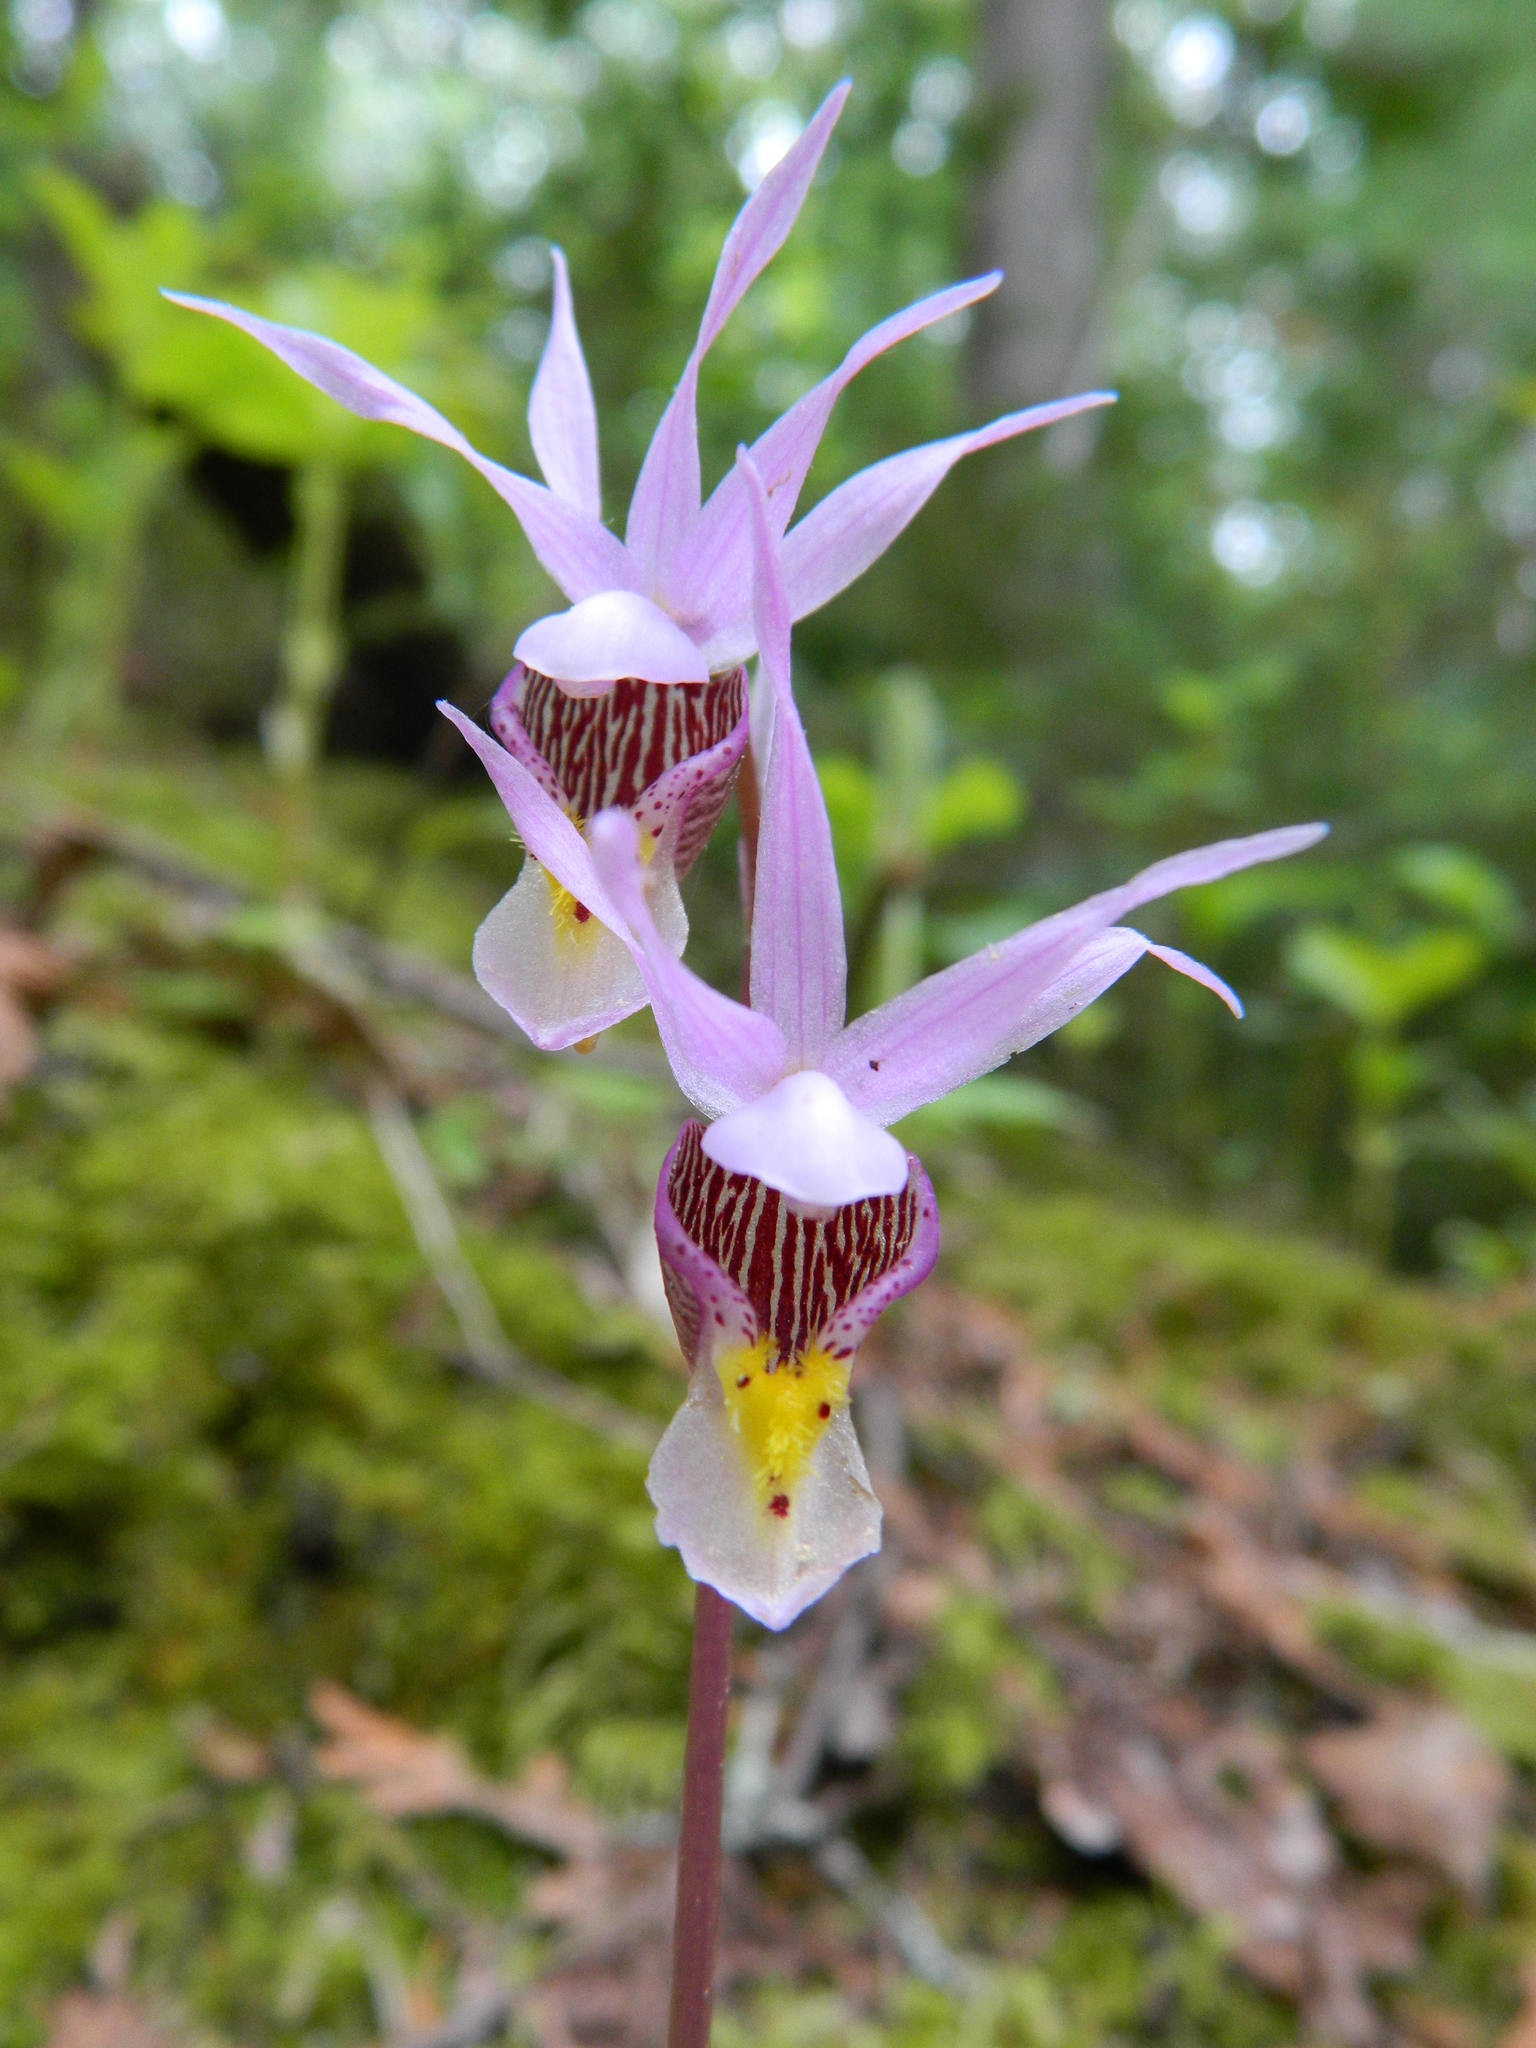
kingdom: Plantae
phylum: Tracheophyta
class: Liliopsida
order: Asparagales
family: Orchidaceae
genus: Calypso
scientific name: Calypso bulbosa
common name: Calypso
